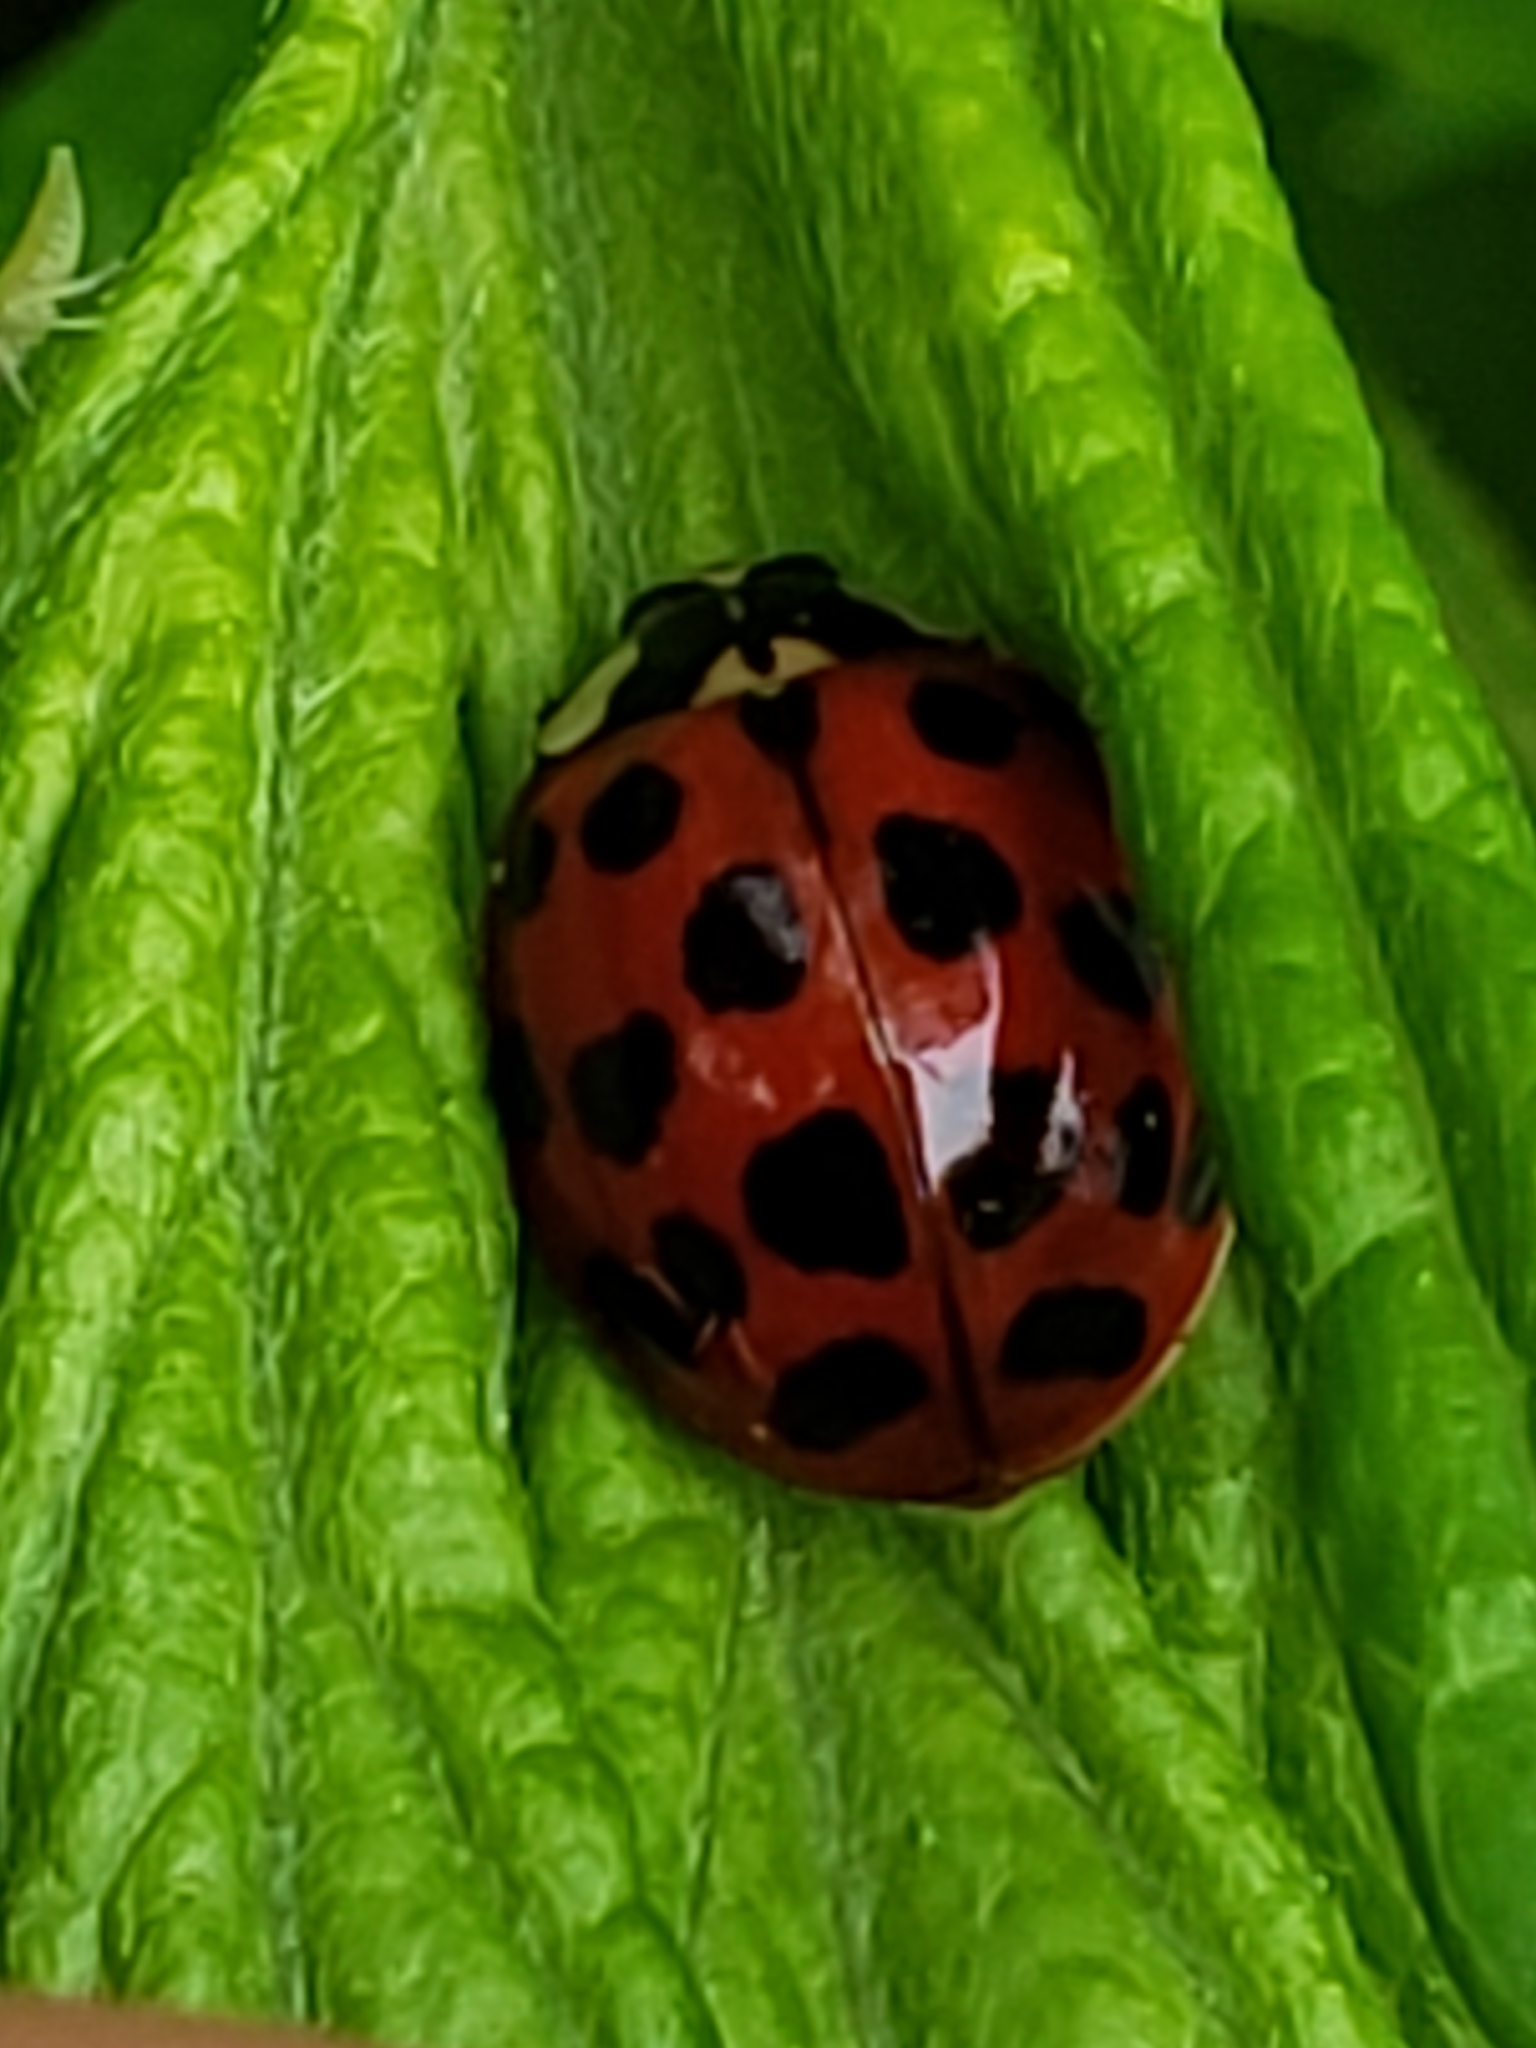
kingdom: Animalia
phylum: Arthropoda
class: Insecta
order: Coleoptera
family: Coccinellidae
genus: Harmonia
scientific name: Harmonia axyridis
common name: Harlequin ladybird
